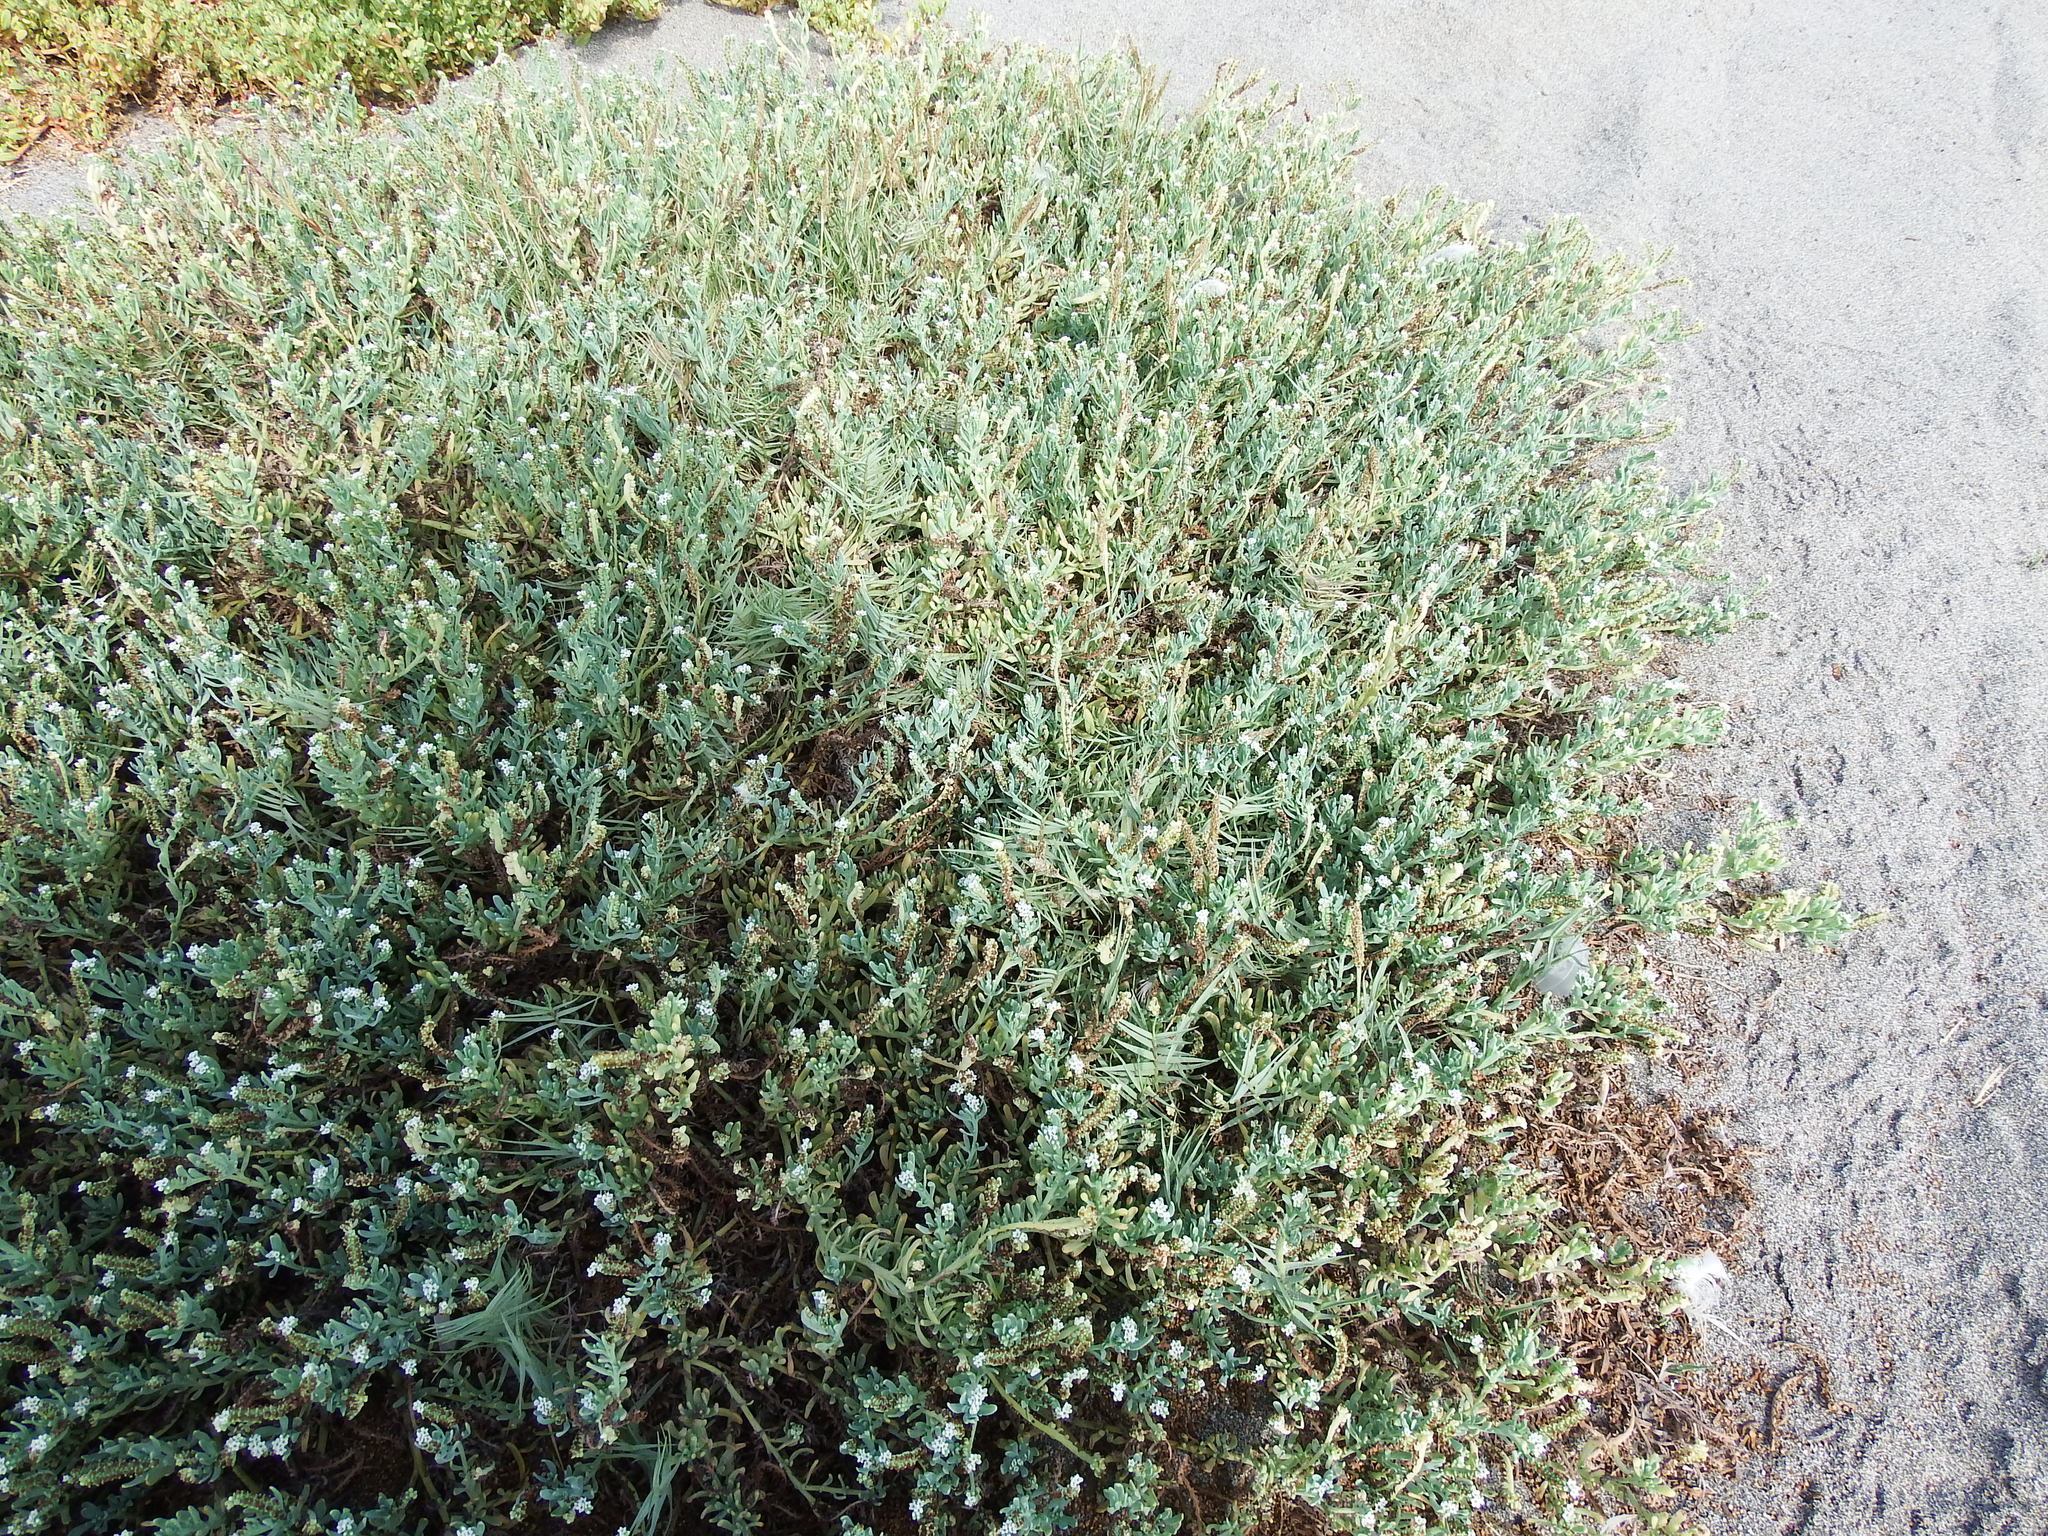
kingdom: Plantae
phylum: Tracheophyta
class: Magnoliopsida
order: Boraginales
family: Heliotropiaceae
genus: Heliotropium
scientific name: Heliotropium curassavicum
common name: Seaside heliotrope
